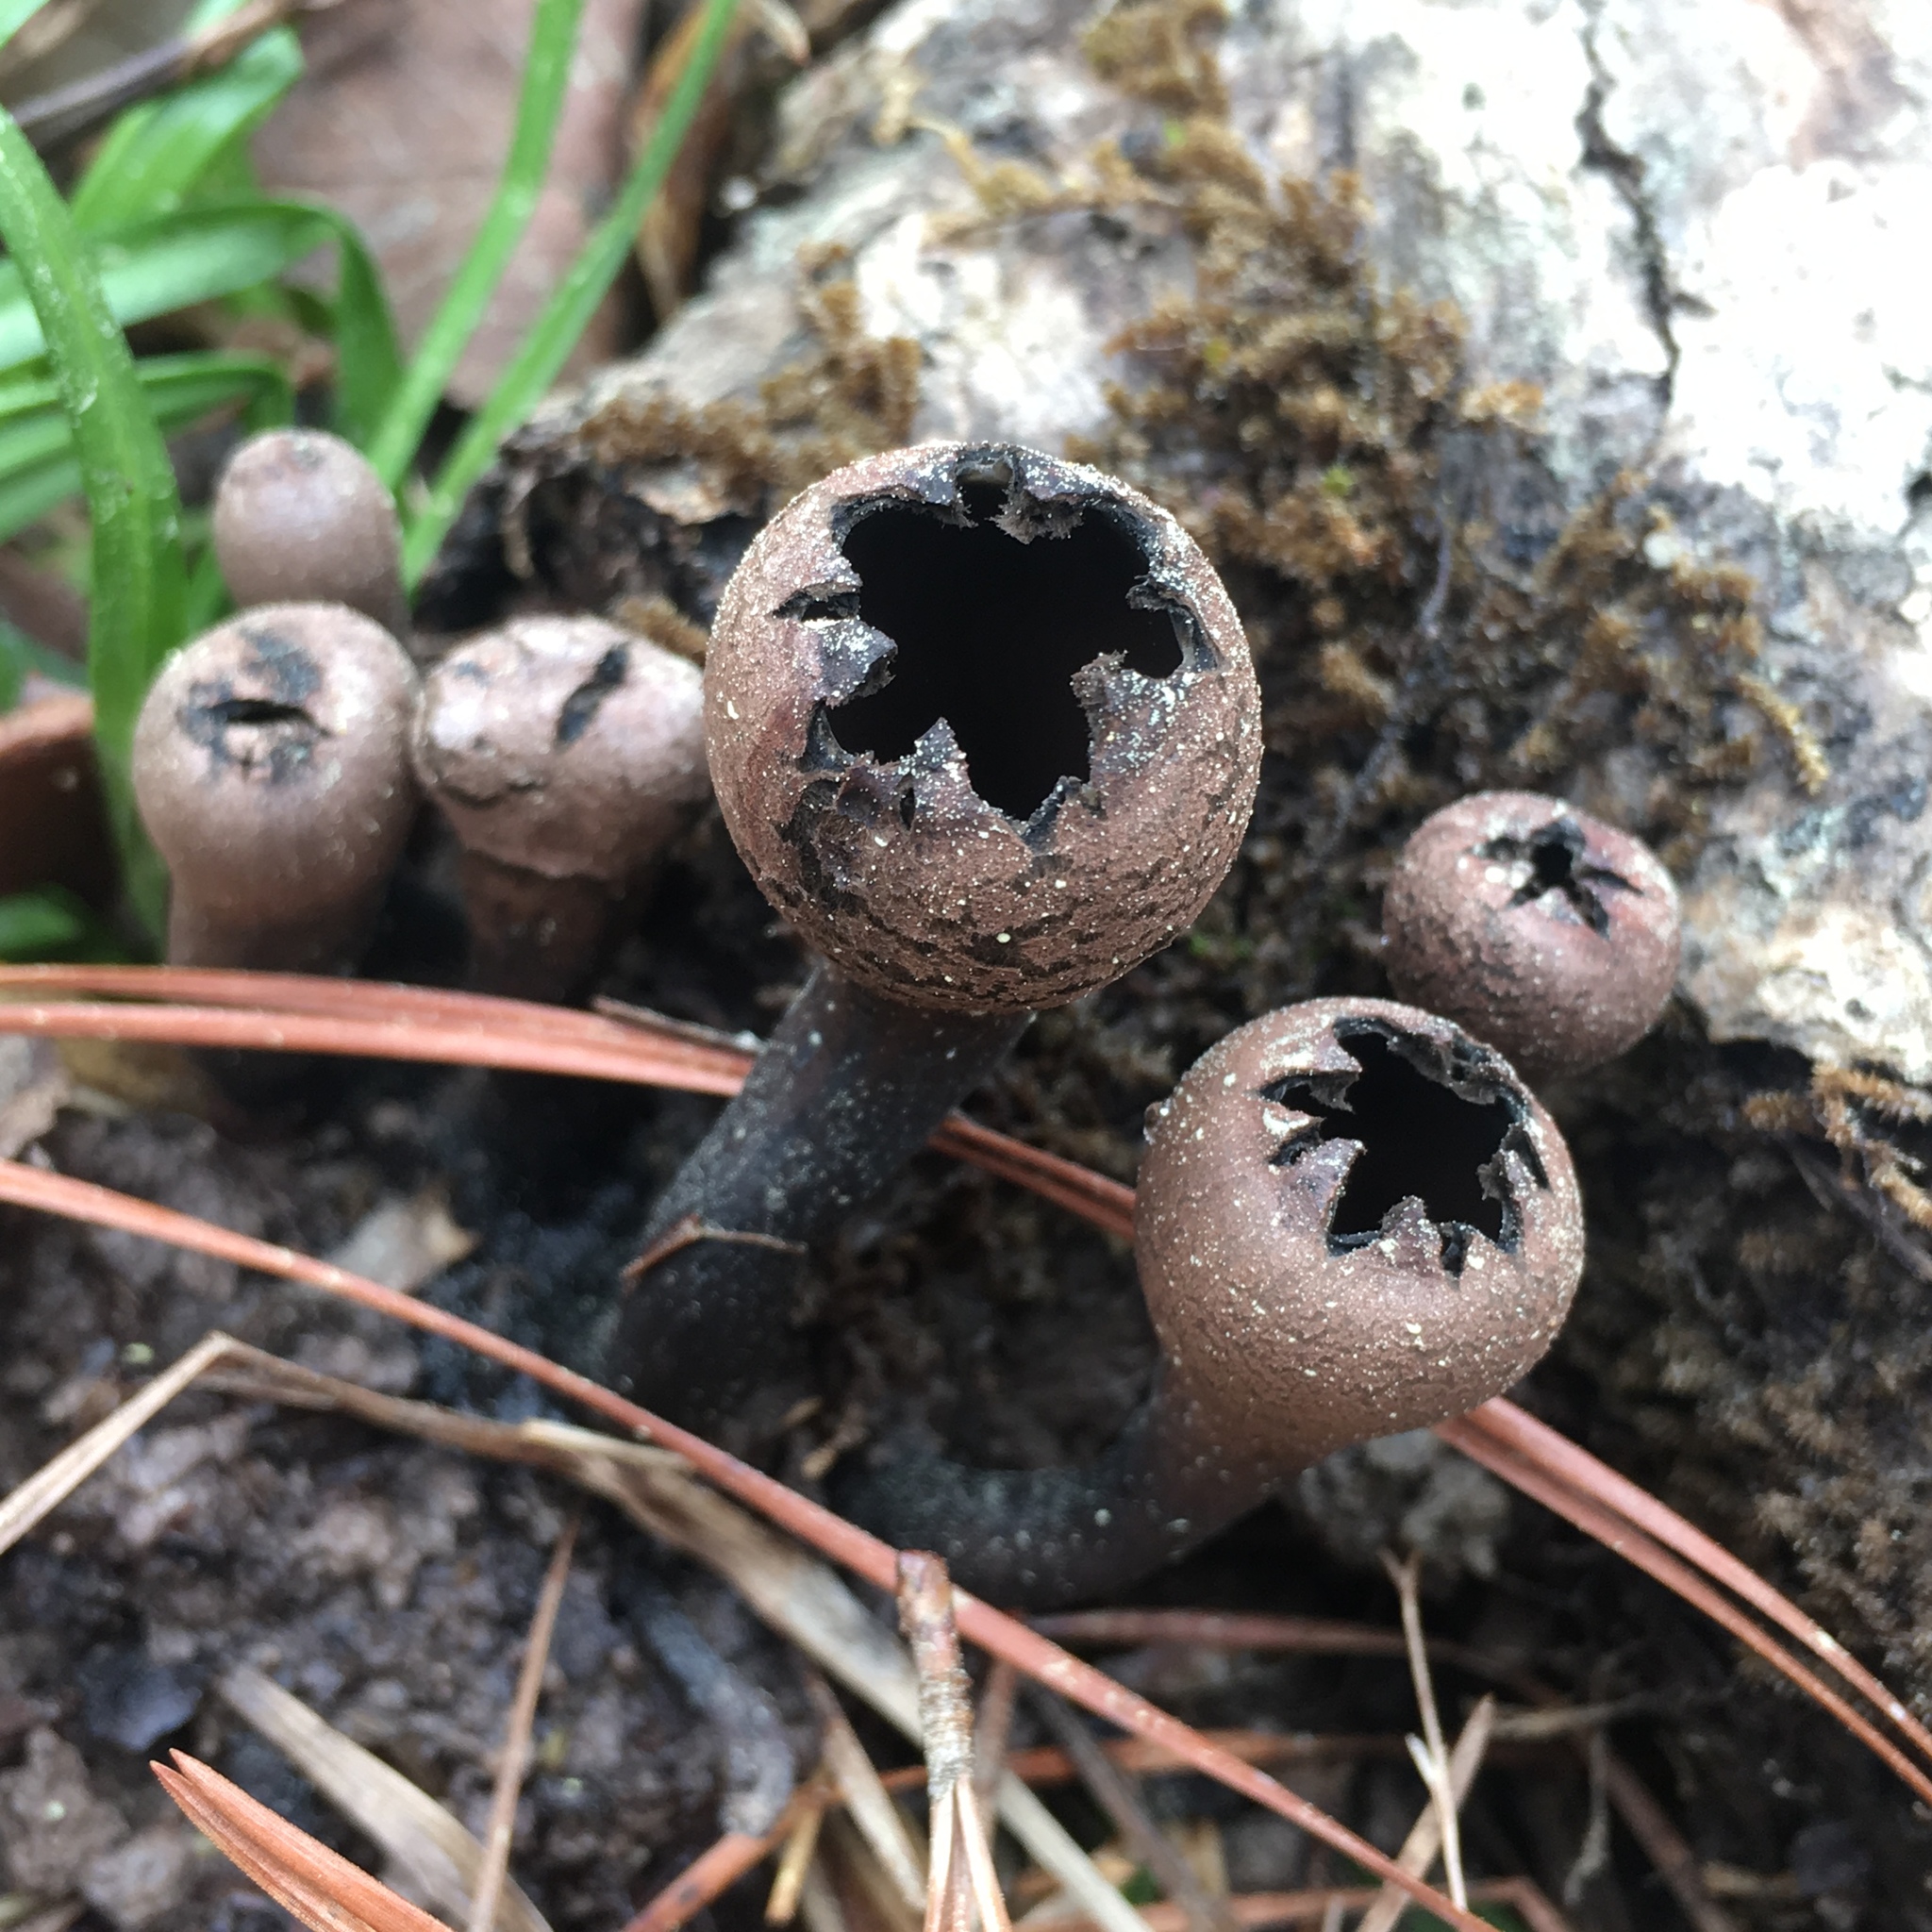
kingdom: Fungi
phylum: Ascomycota
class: Pezizomycetes
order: Pezizales
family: Sarcosomataceae
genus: Urnula
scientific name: Urnula craterium
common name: Devil's urn
